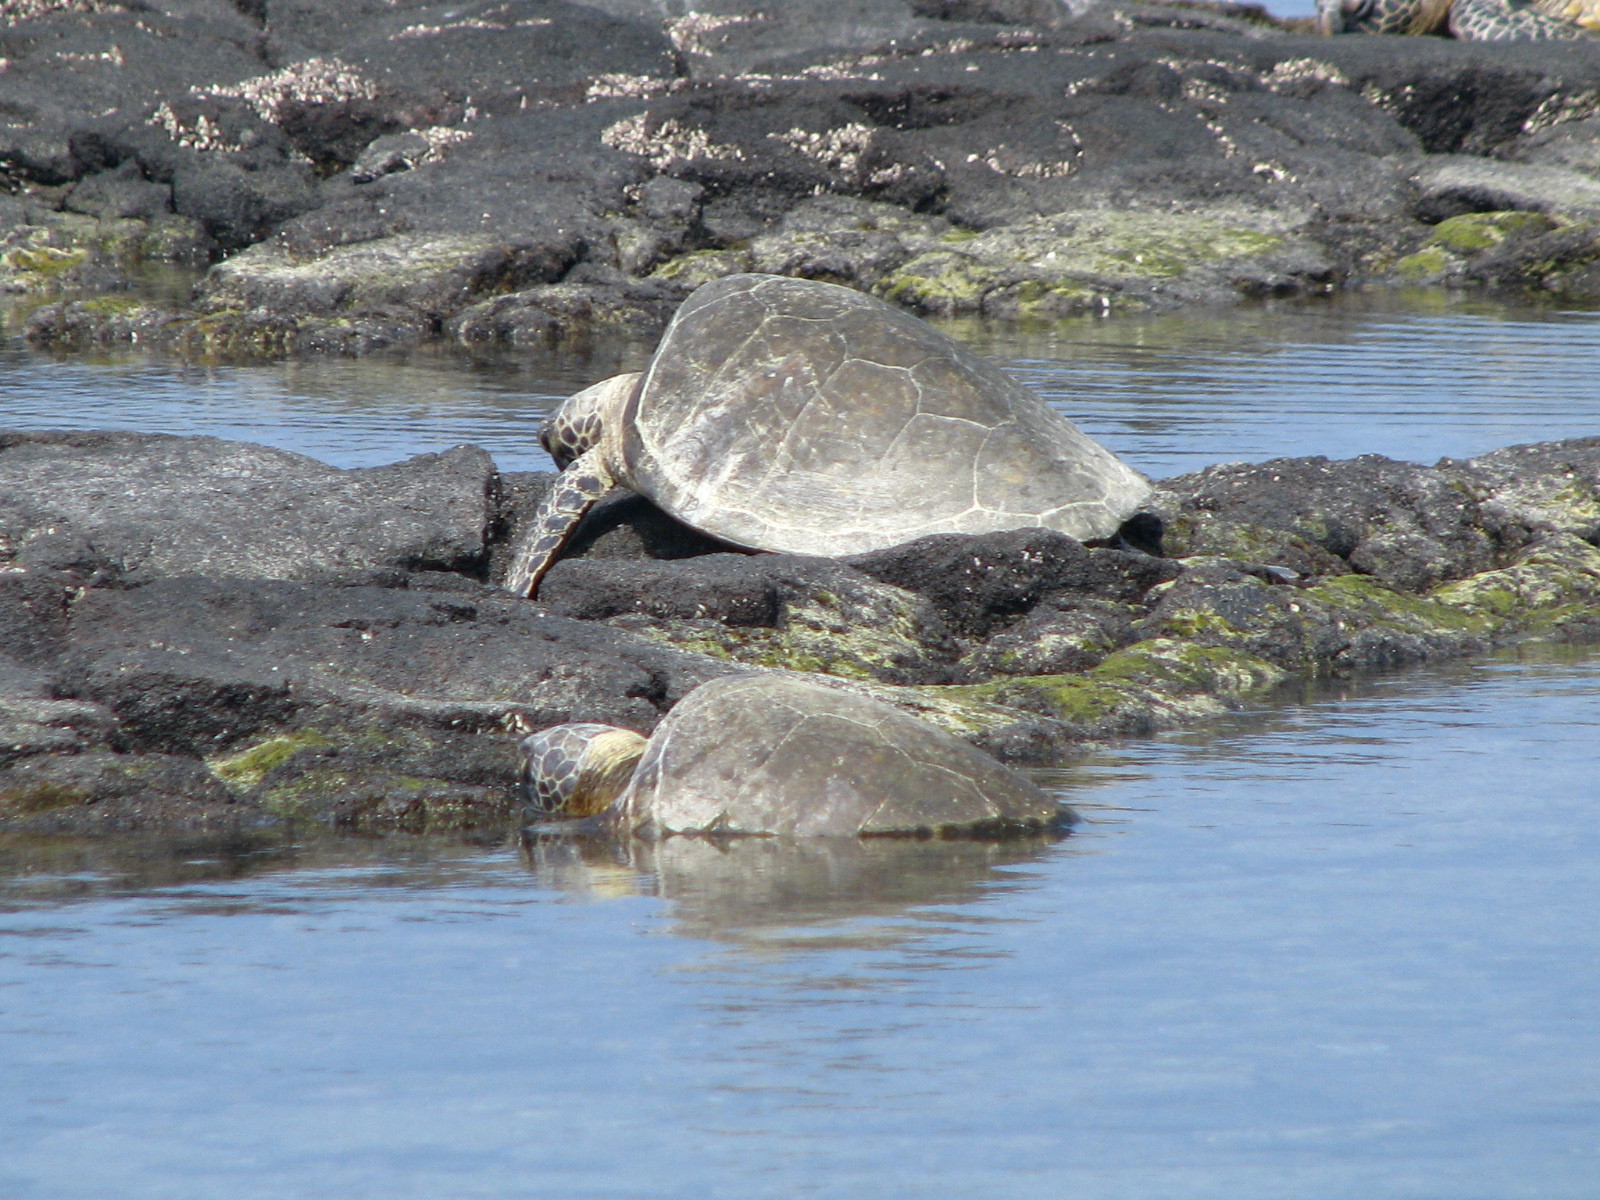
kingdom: Animalia
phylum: Chordata
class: Testudines
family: Cheloniidae
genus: Chelonia
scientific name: Chelonia mydas
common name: Green turtle
